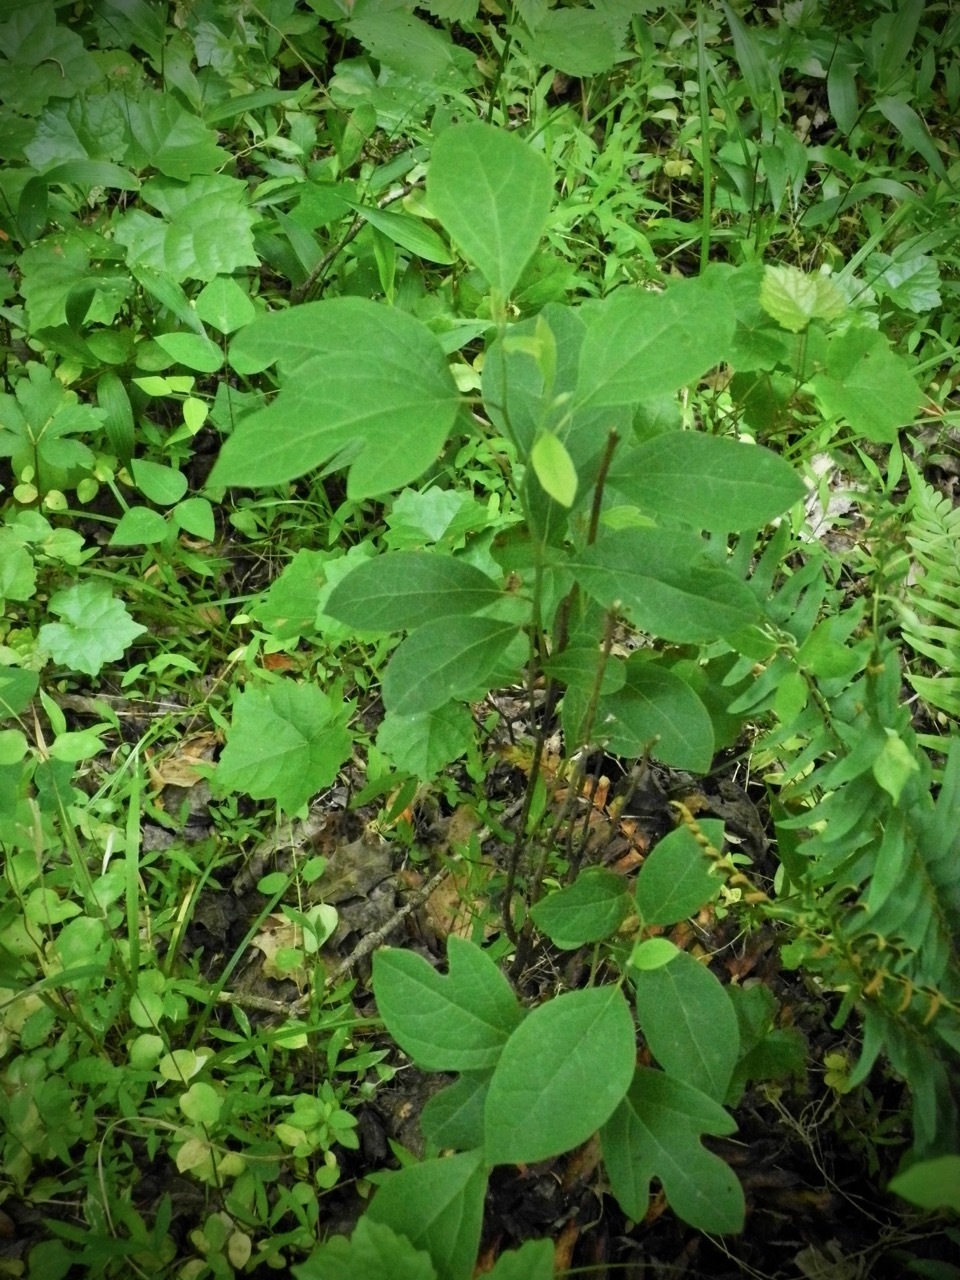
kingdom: Plantae
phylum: Tracheophyta
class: Magnoliopsida
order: Laurales
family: Lauraceae
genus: Sassafras
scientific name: Sassafras albidum
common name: Sassafras
